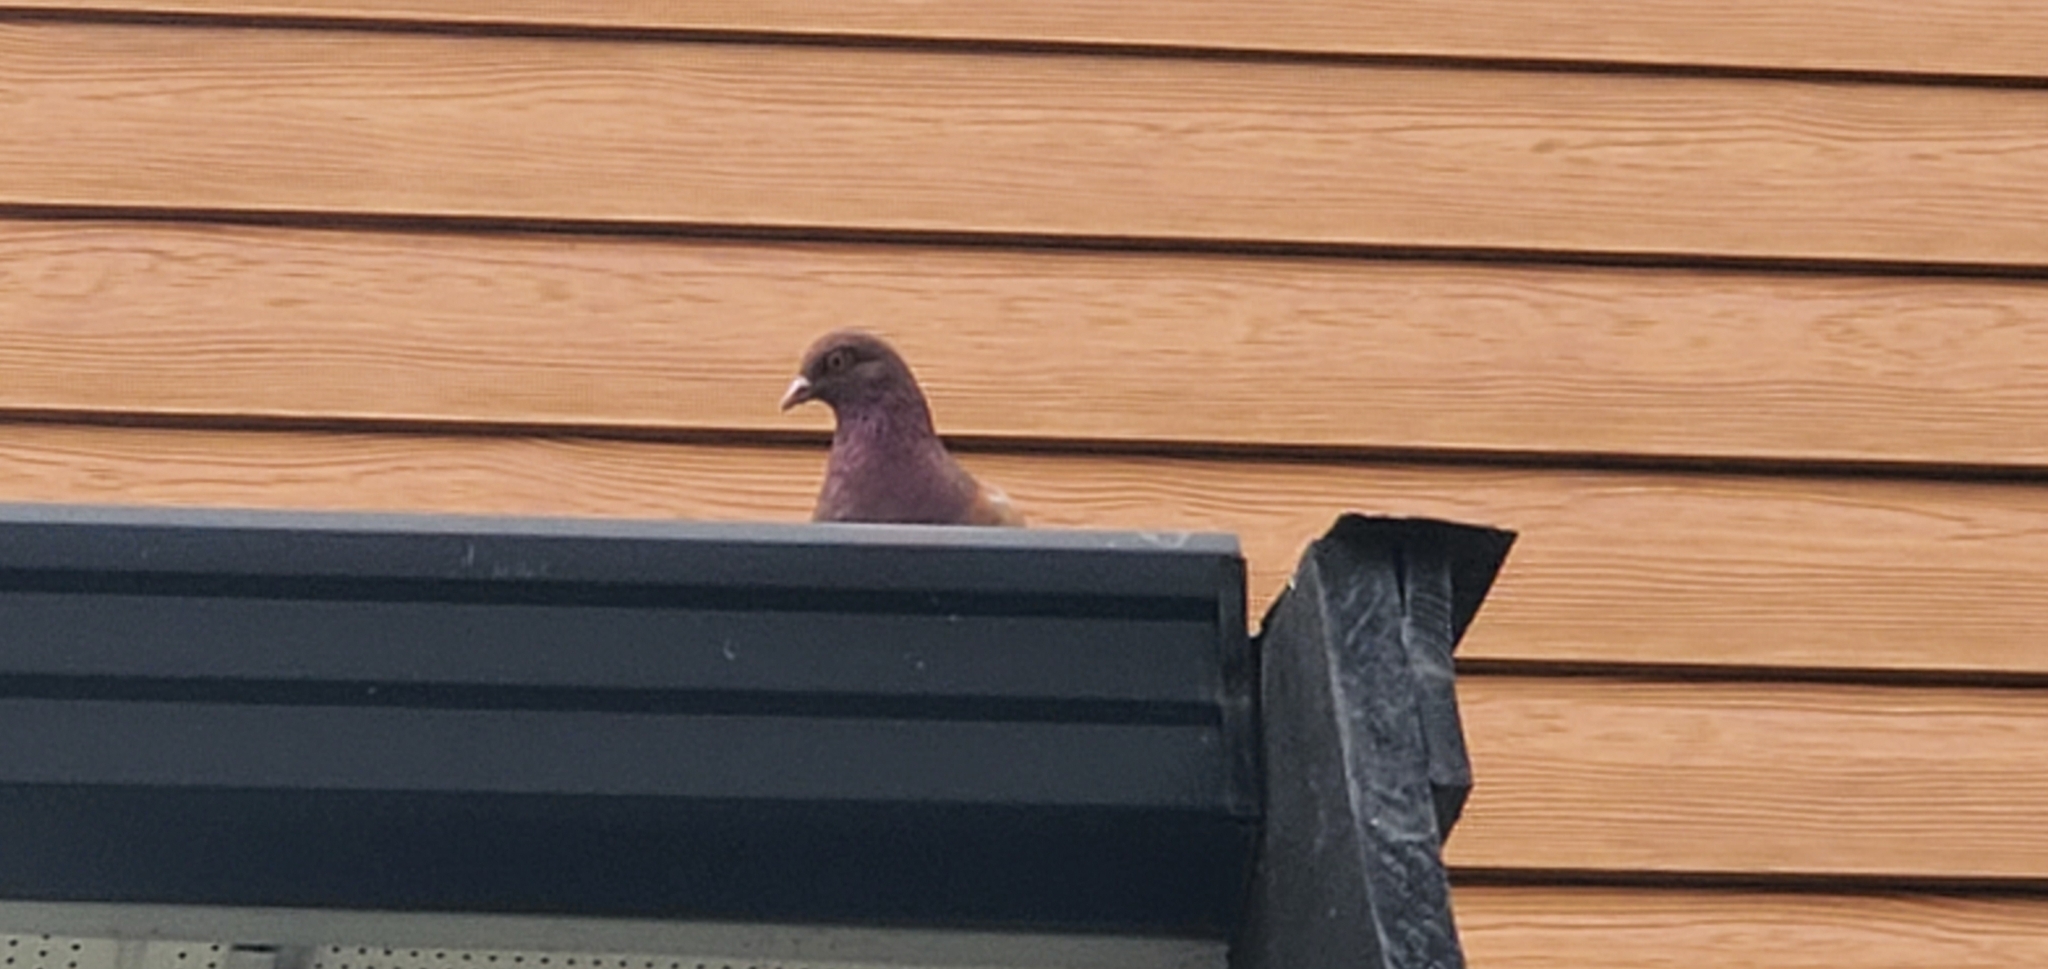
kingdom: Animalia
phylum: Chordata
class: Aves
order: Columbiformes
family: Columbidae
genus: Columba
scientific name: Columba livia
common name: Rock pigeon
